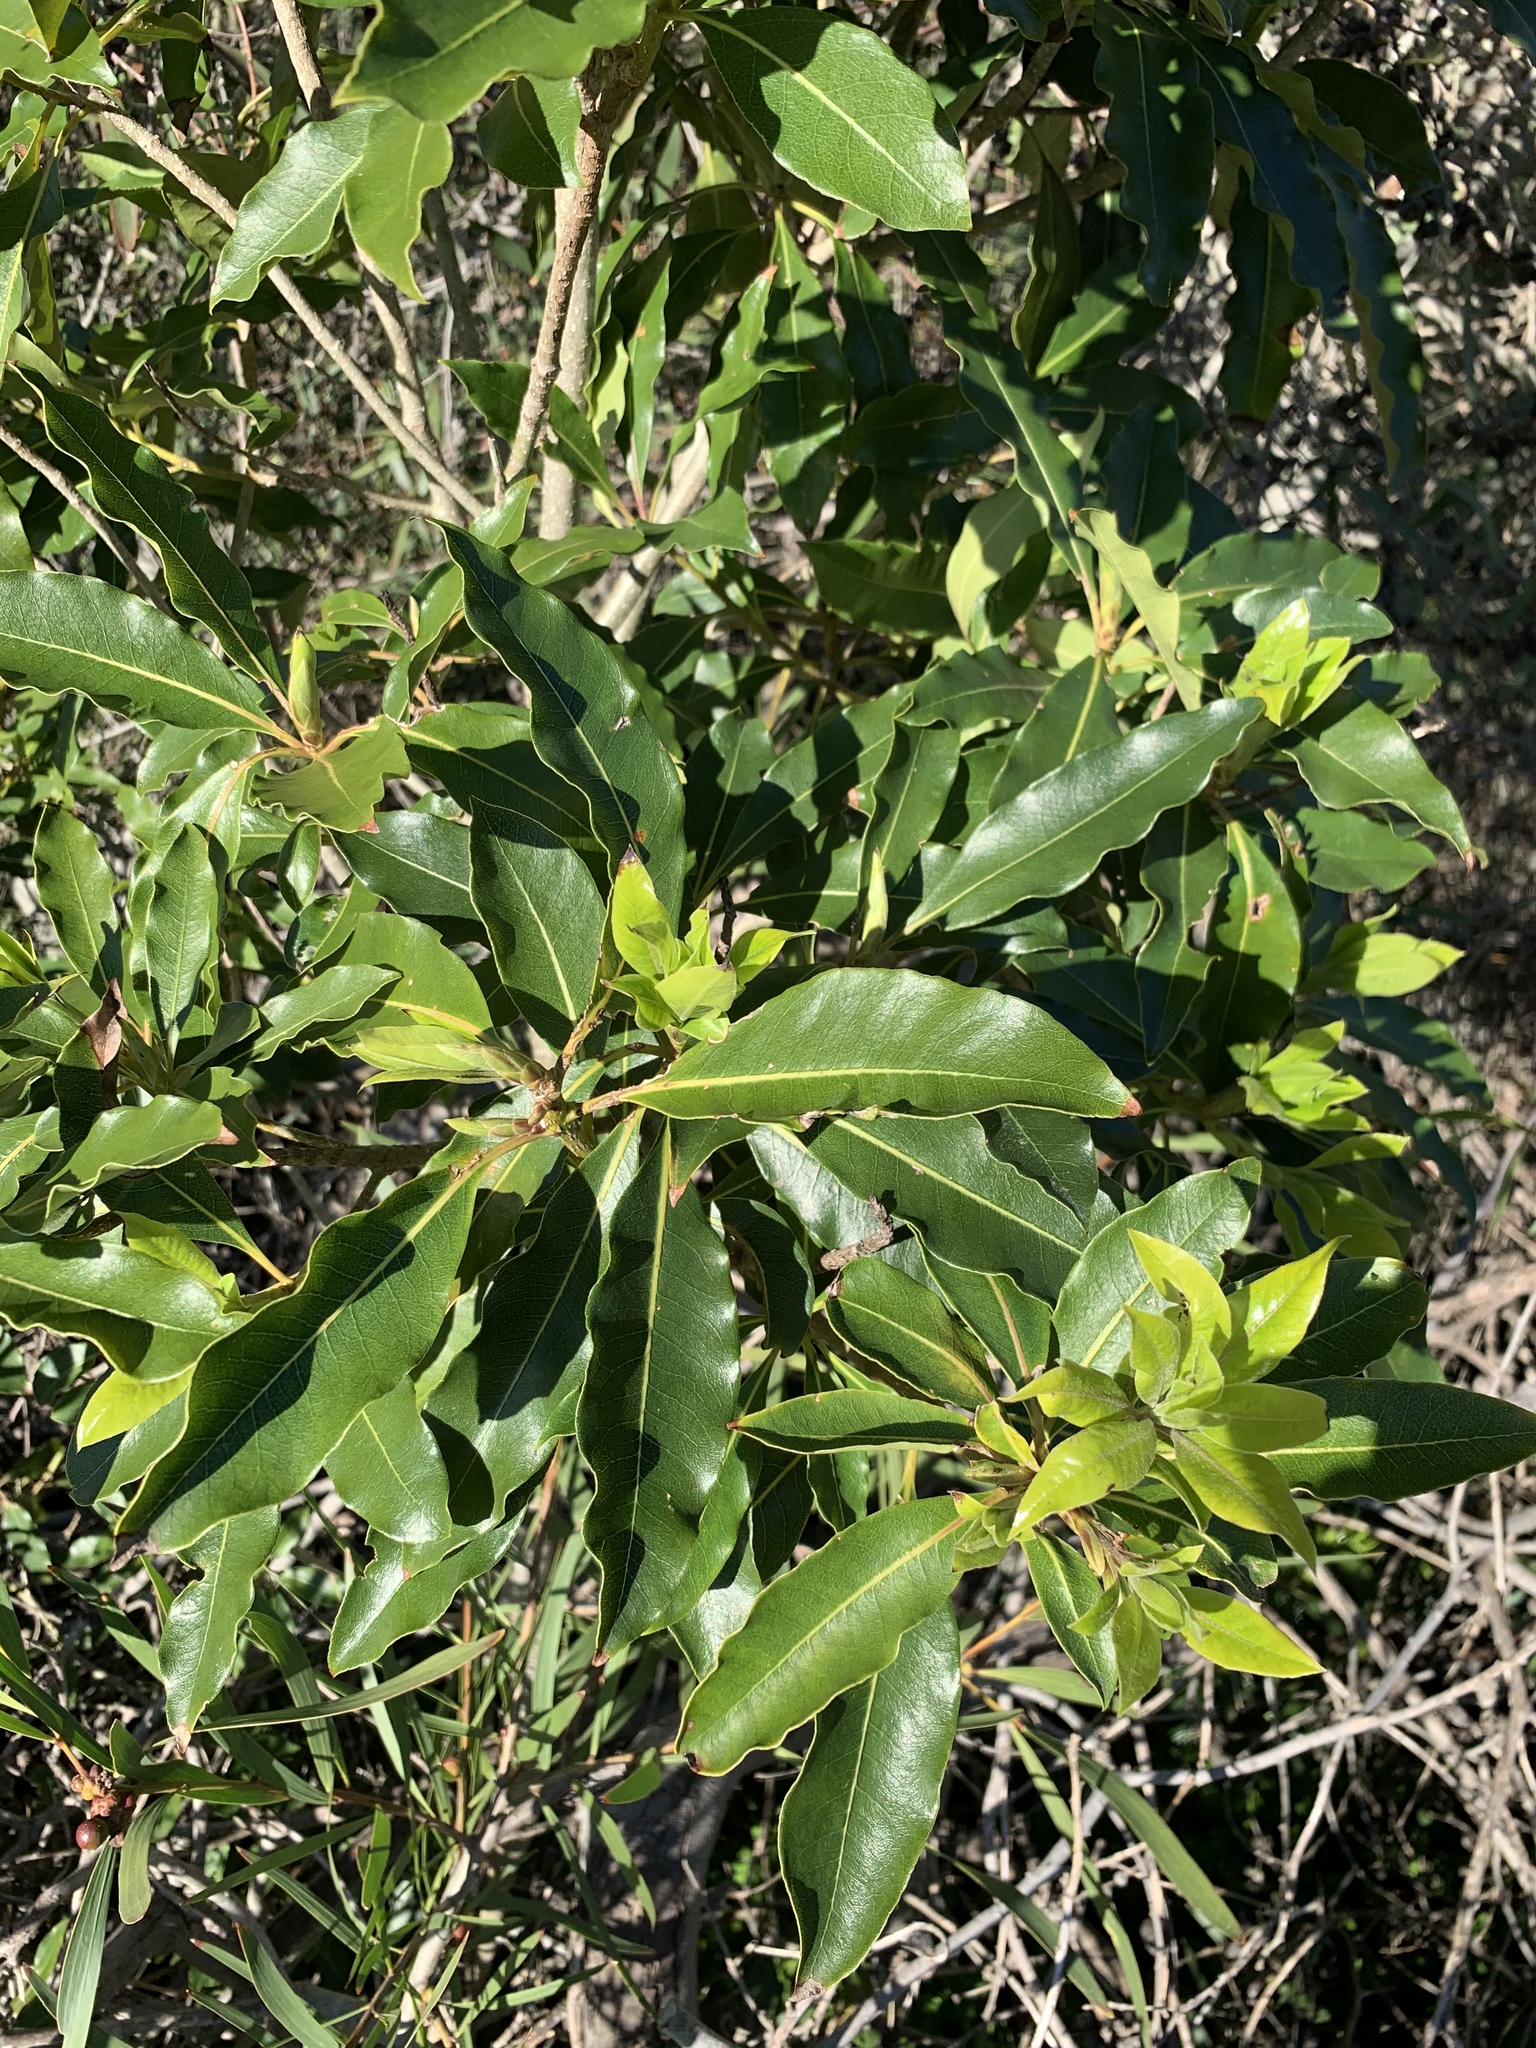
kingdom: Plantae
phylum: Tracheophyta
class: Magnoliopsida
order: Apiales
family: Pittosporaceae
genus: Pittosporum
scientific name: Pittosporum undulatum
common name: Australian cheesewood
